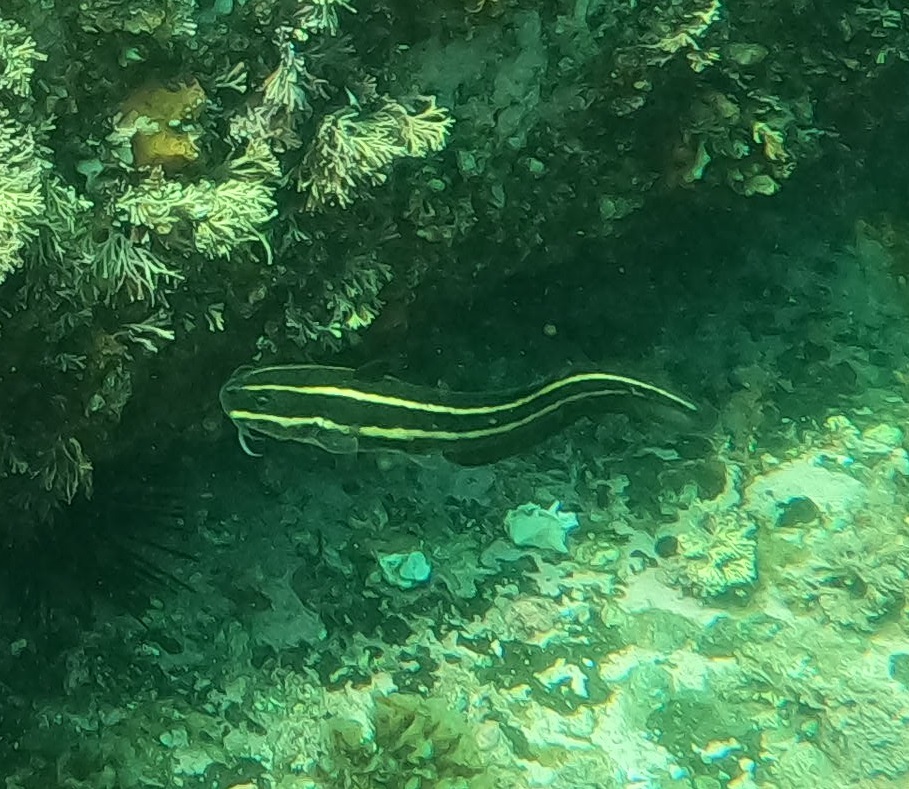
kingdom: Animalia
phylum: Chordata
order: Siluriformes
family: Plotosidae
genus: Plotosus
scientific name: Plotosus lineatus
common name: Striped eel catfish
